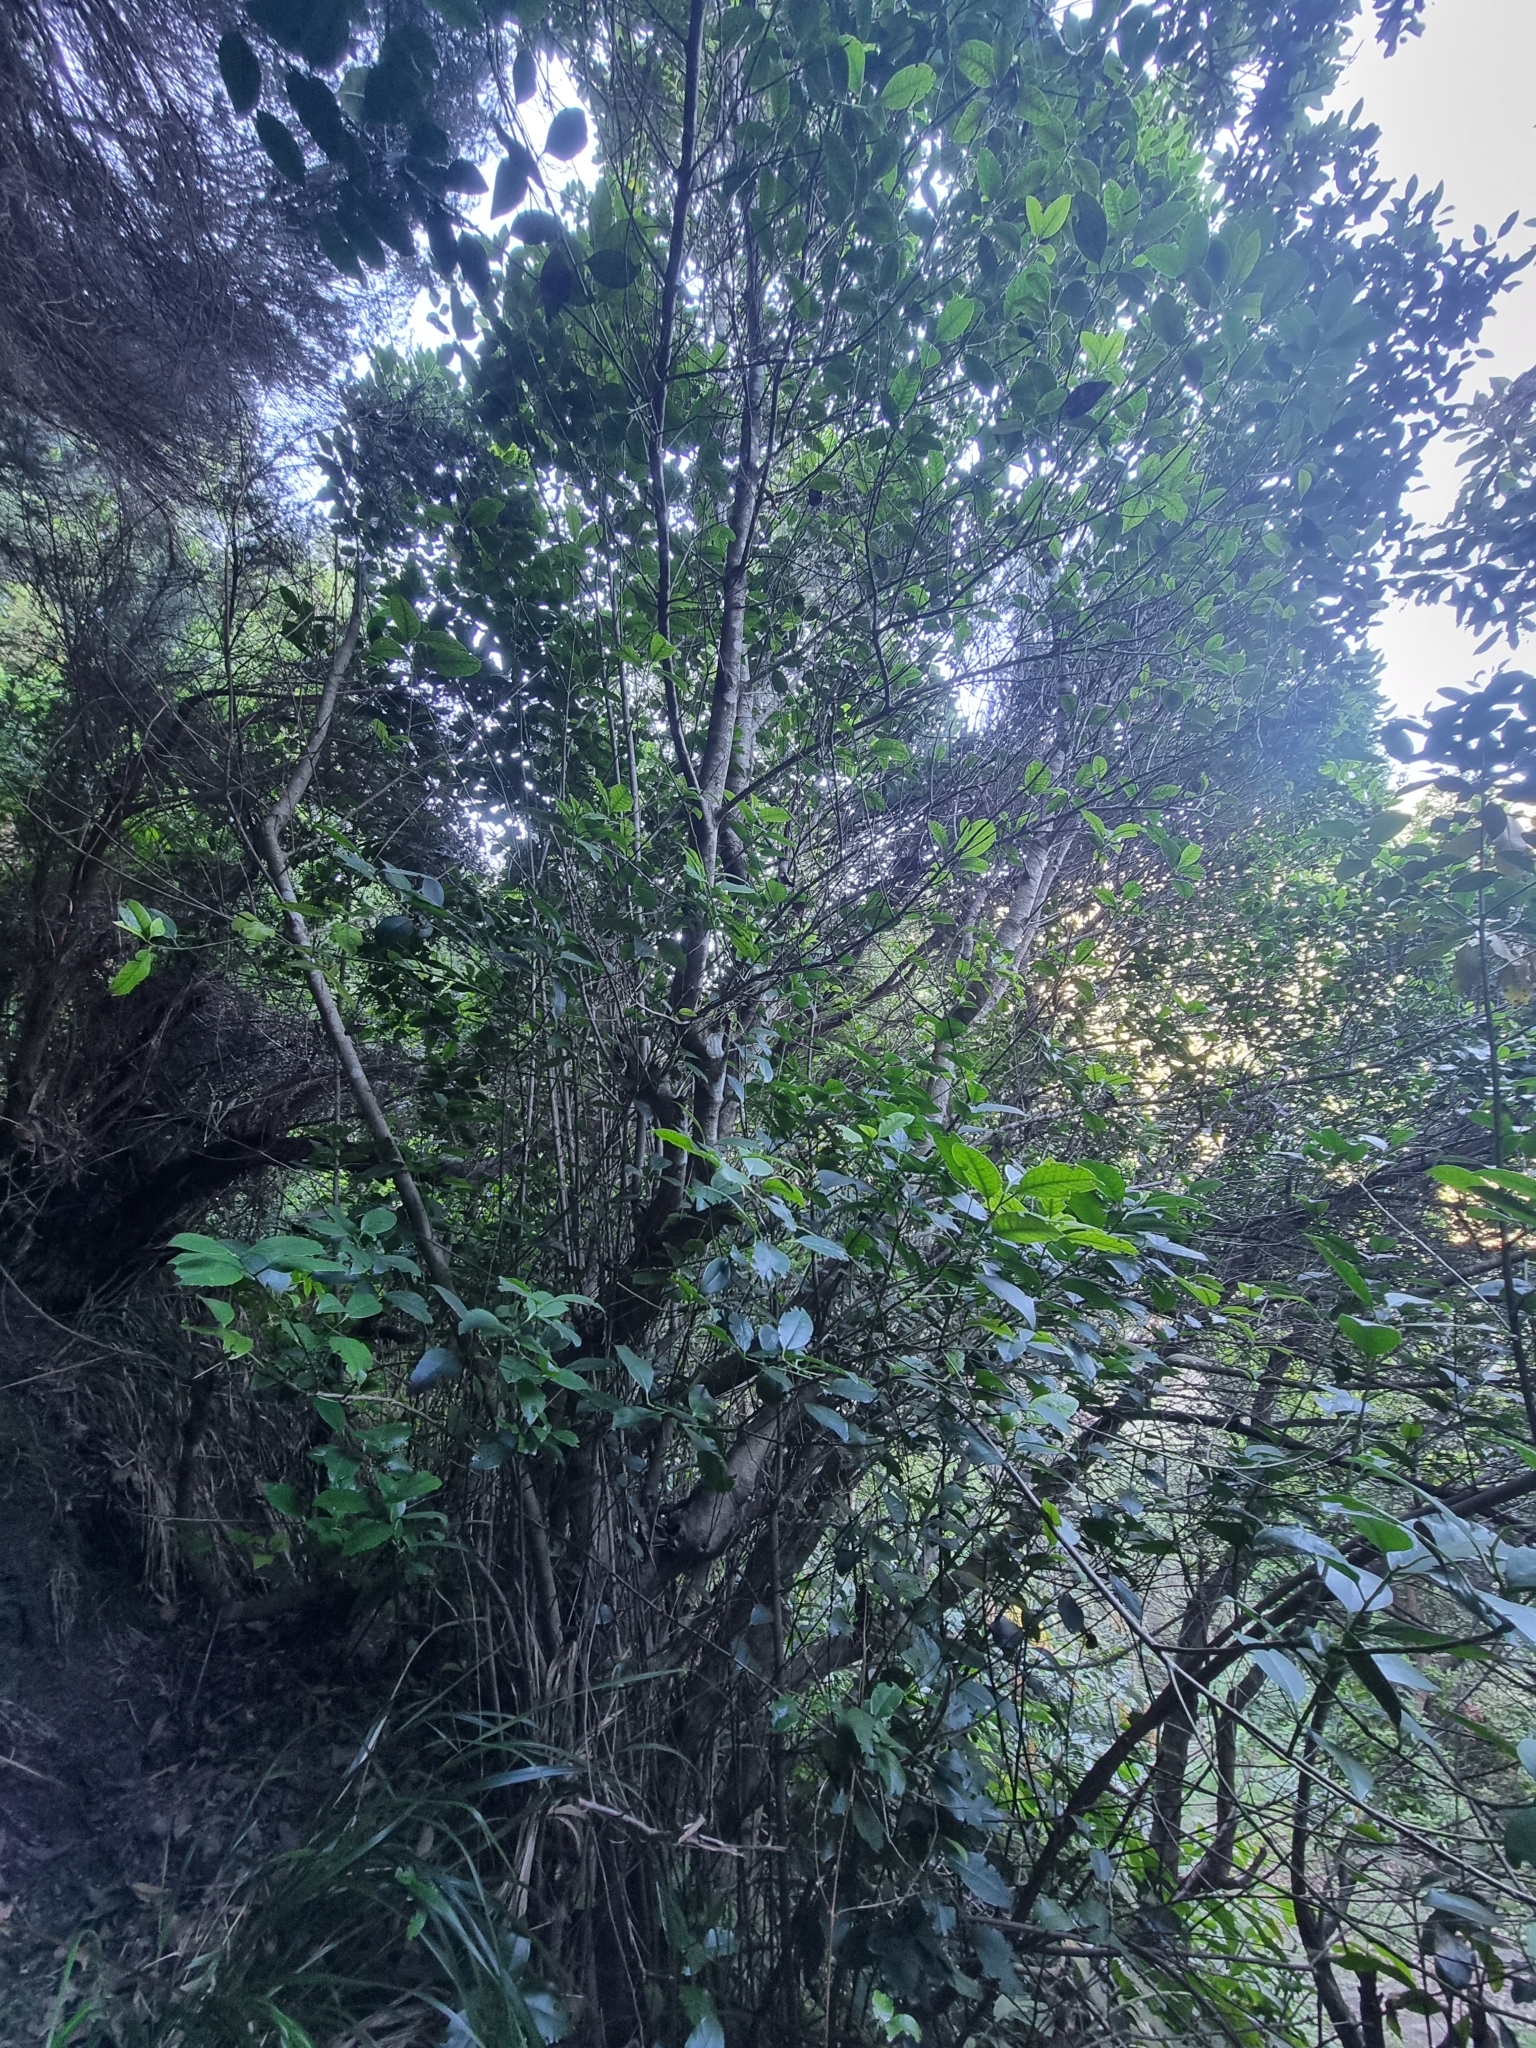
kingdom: Plantae
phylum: Tracheophyta
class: Magnoliopsida
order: Aquifoliales
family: Aquifoliaceae
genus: Ilex
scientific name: Ilex canariensis
